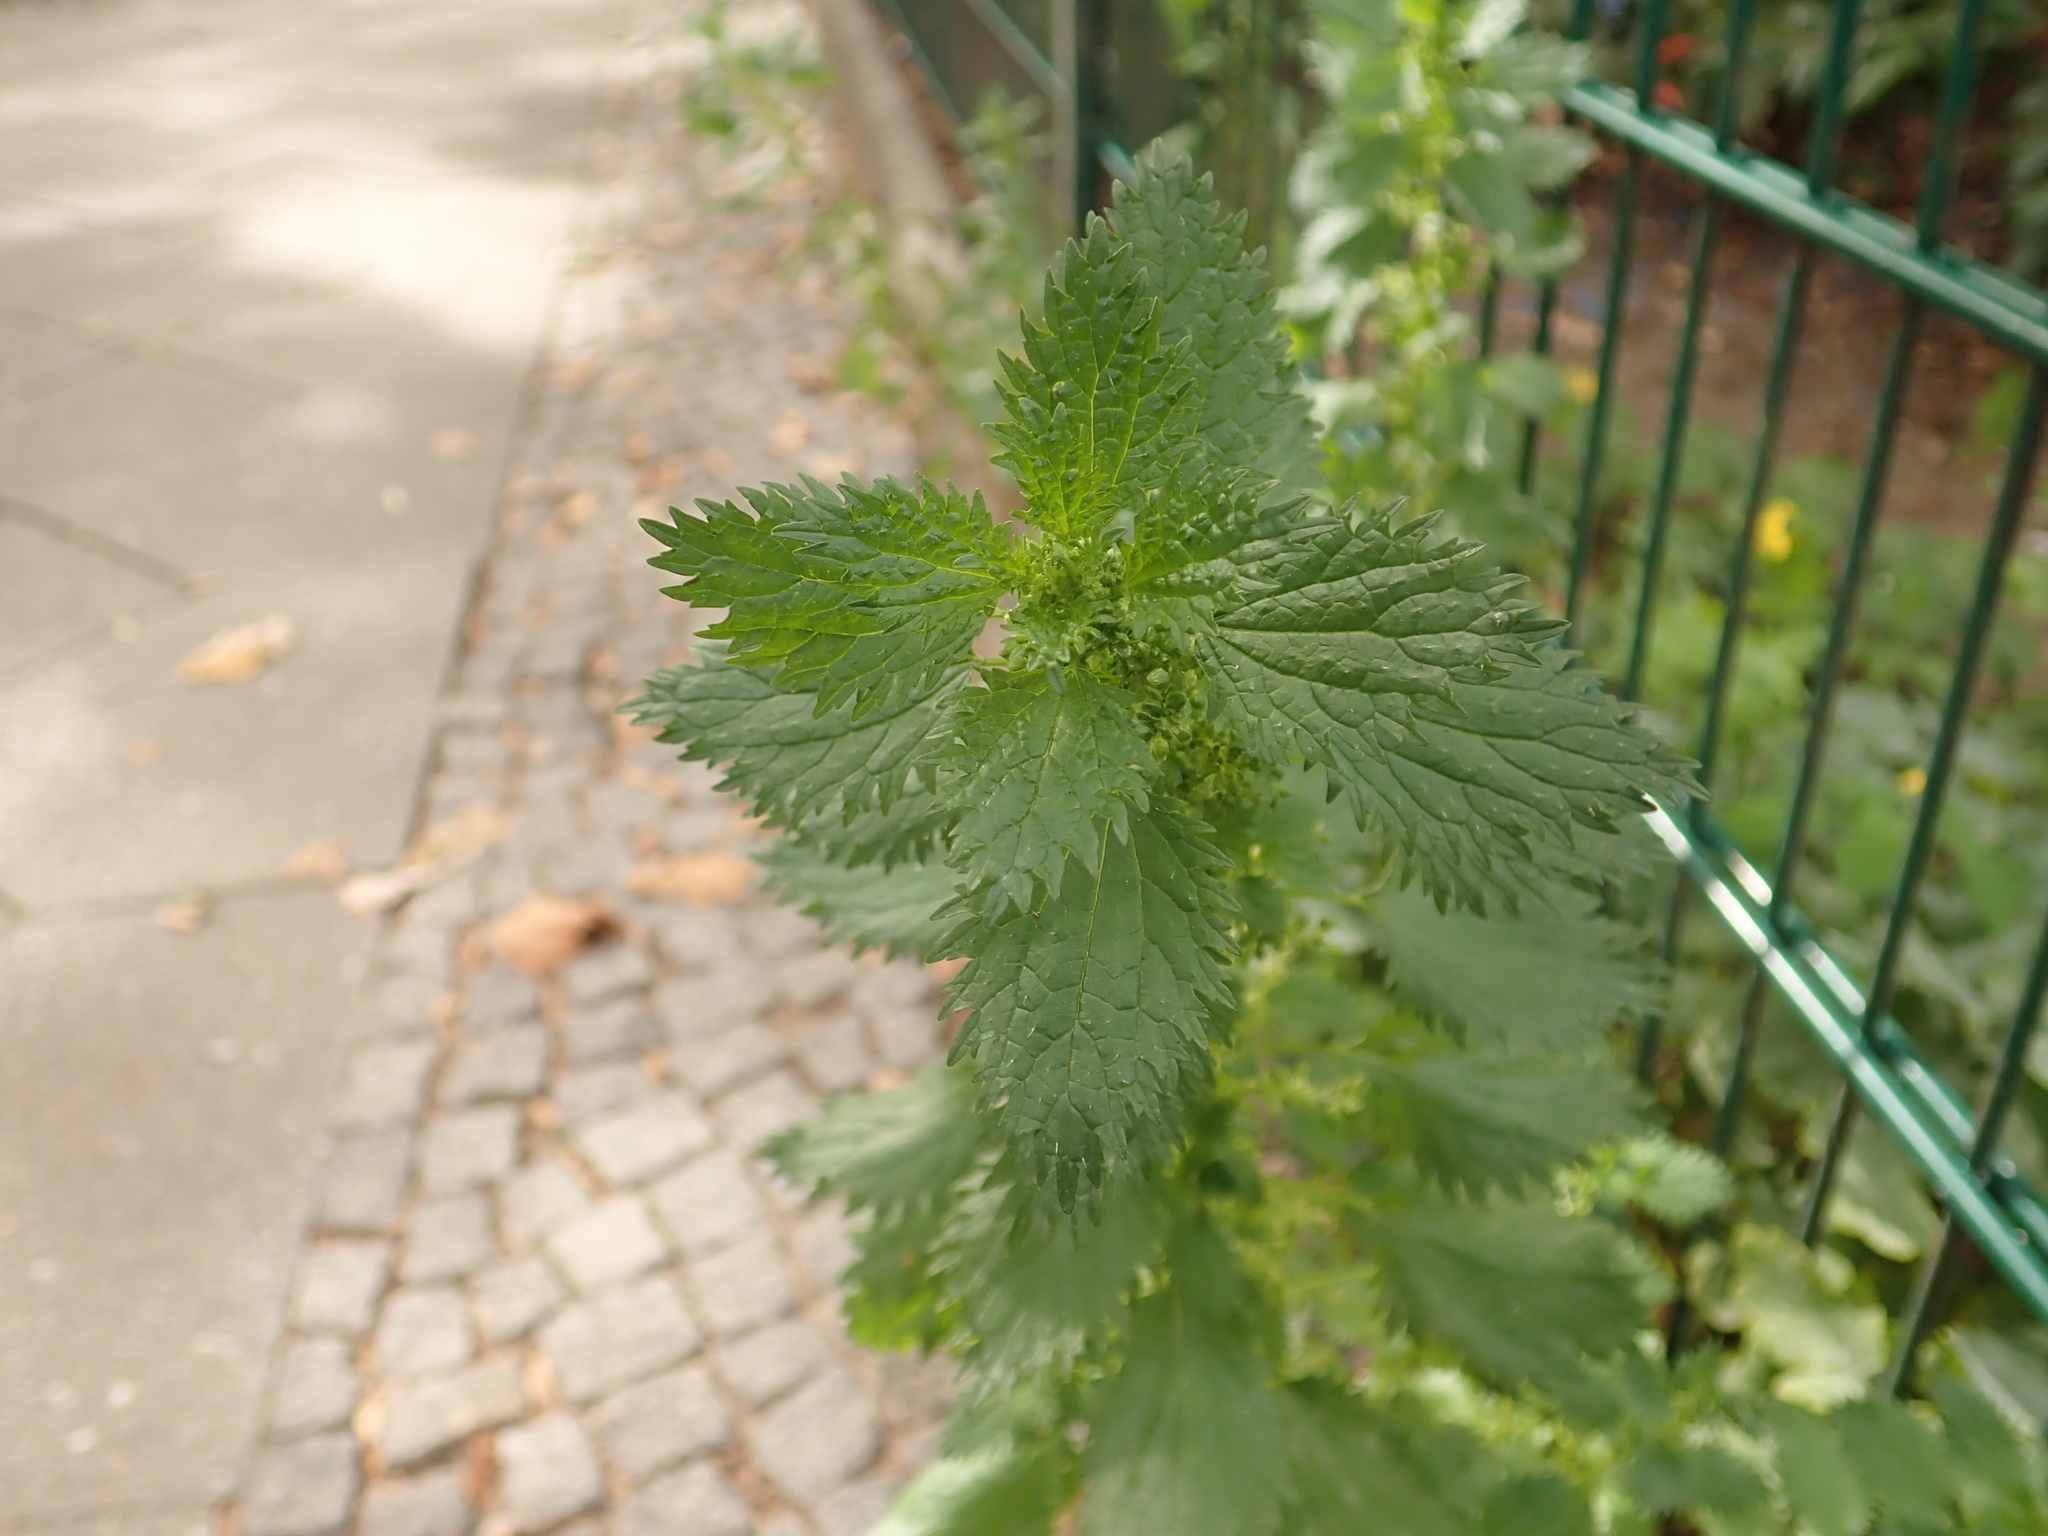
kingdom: Plantae
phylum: Tracheophyta
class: Magnoliopsida
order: Rosales
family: Urticaceae
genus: Urtica
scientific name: Urtica urens
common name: Dwarf nettle
